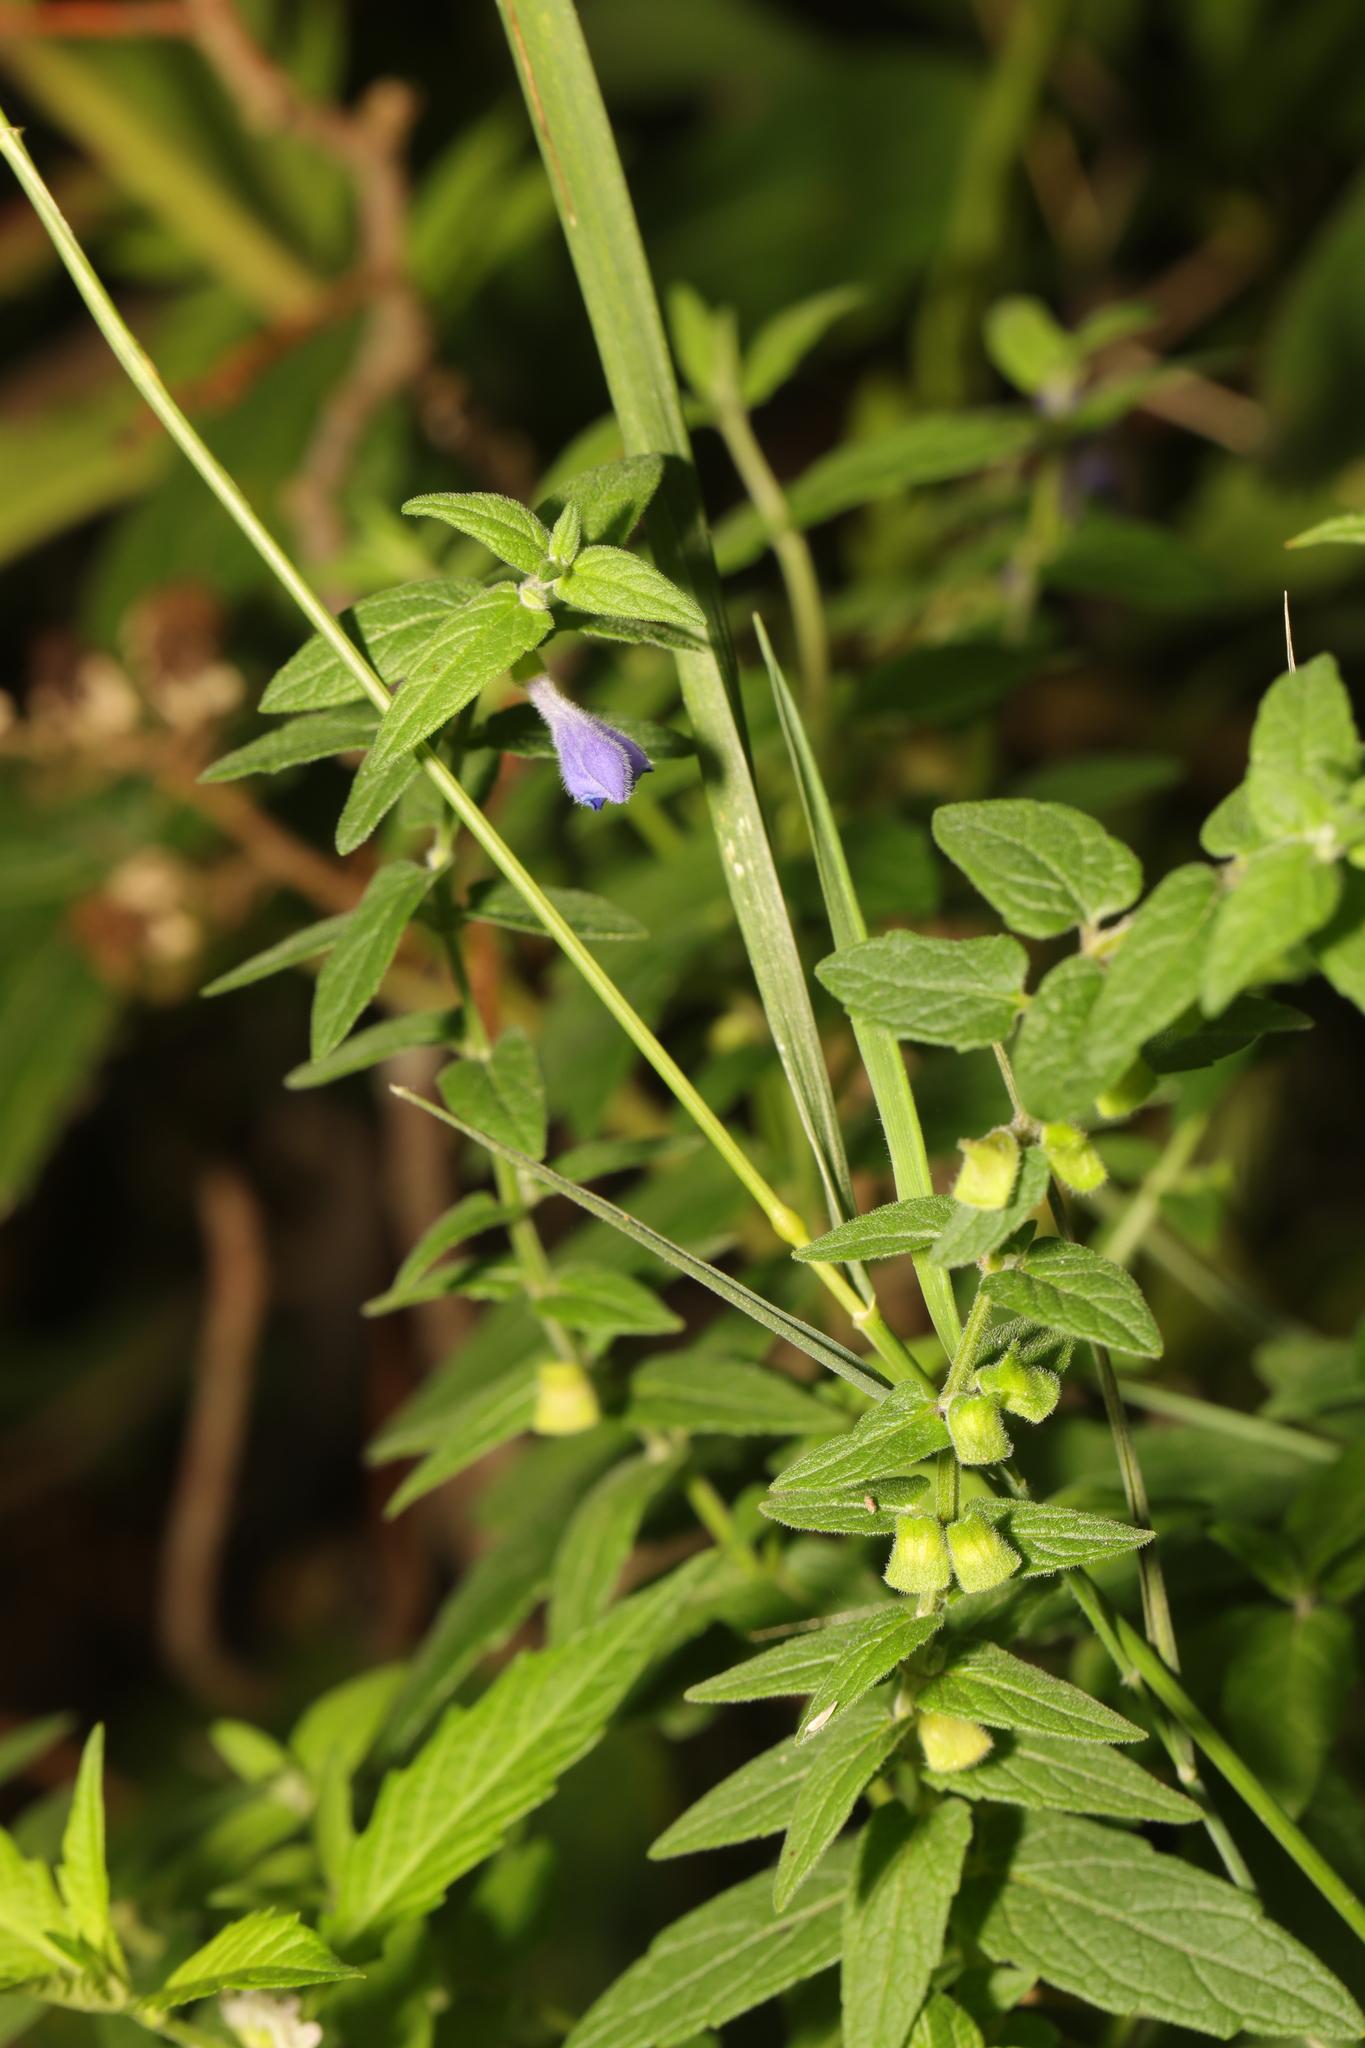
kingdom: Plantae
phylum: Tracheophyta
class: Magnoliopsida
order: Lamiales
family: Lamiaceae
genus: Scutellaria
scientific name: Scutellaria galericulata
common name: Skullcap
